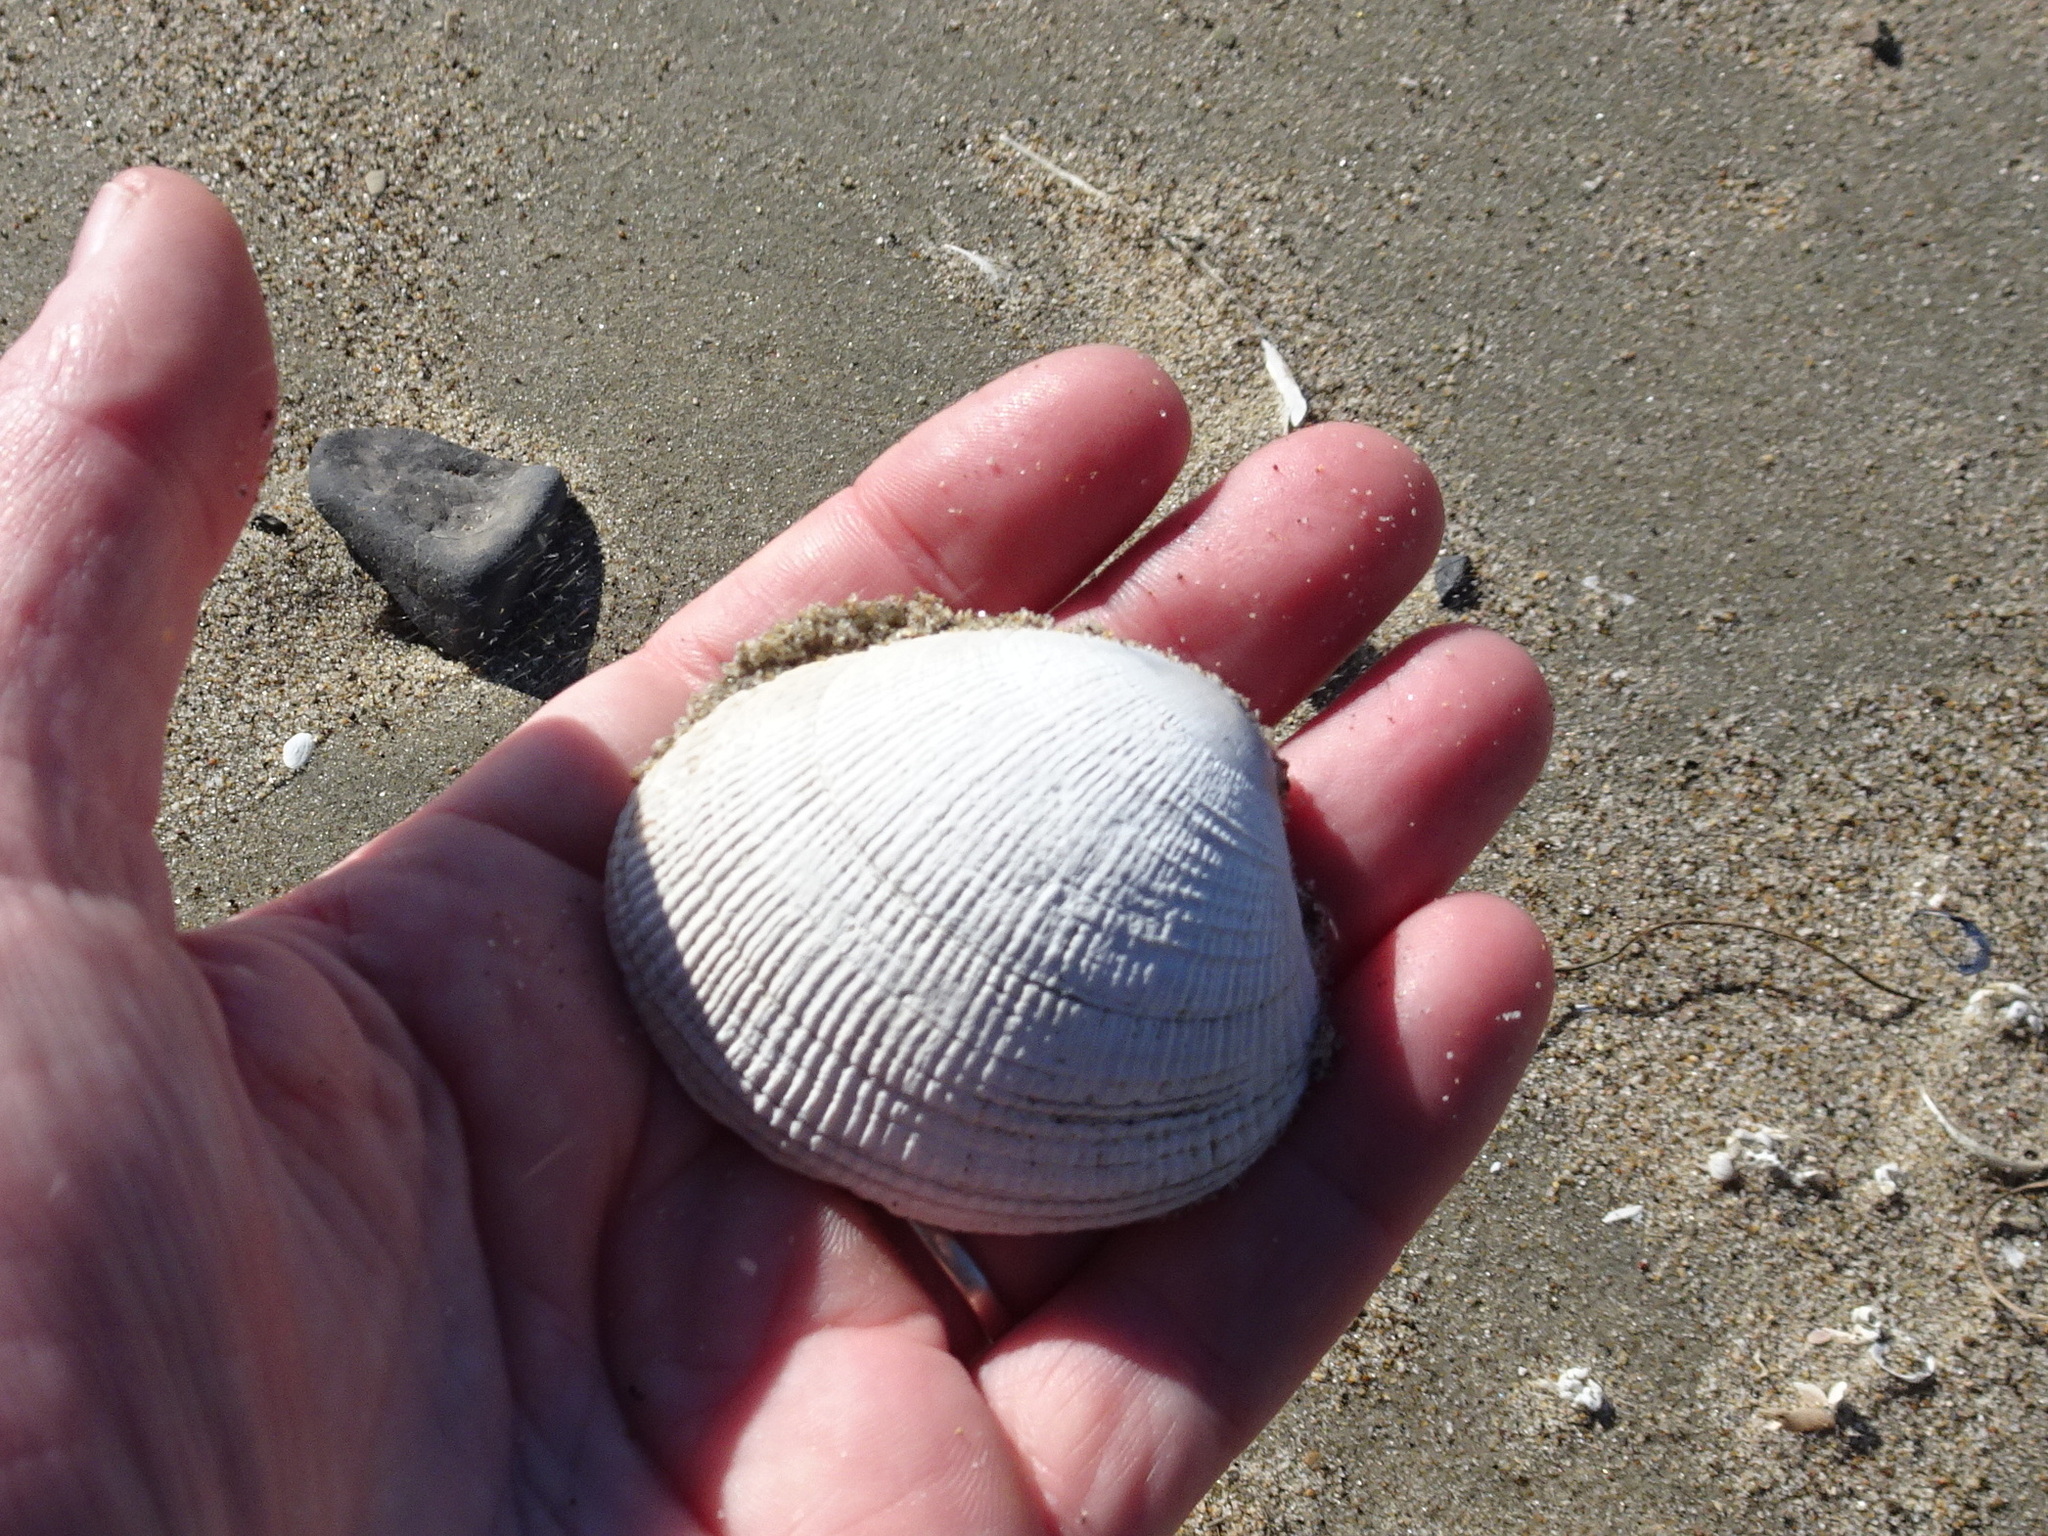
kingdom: Animalia
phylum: Mollusca
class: Bivalvia
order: Venerida
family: Veneridae
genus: Leukoma
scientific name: Leukoma staminea
